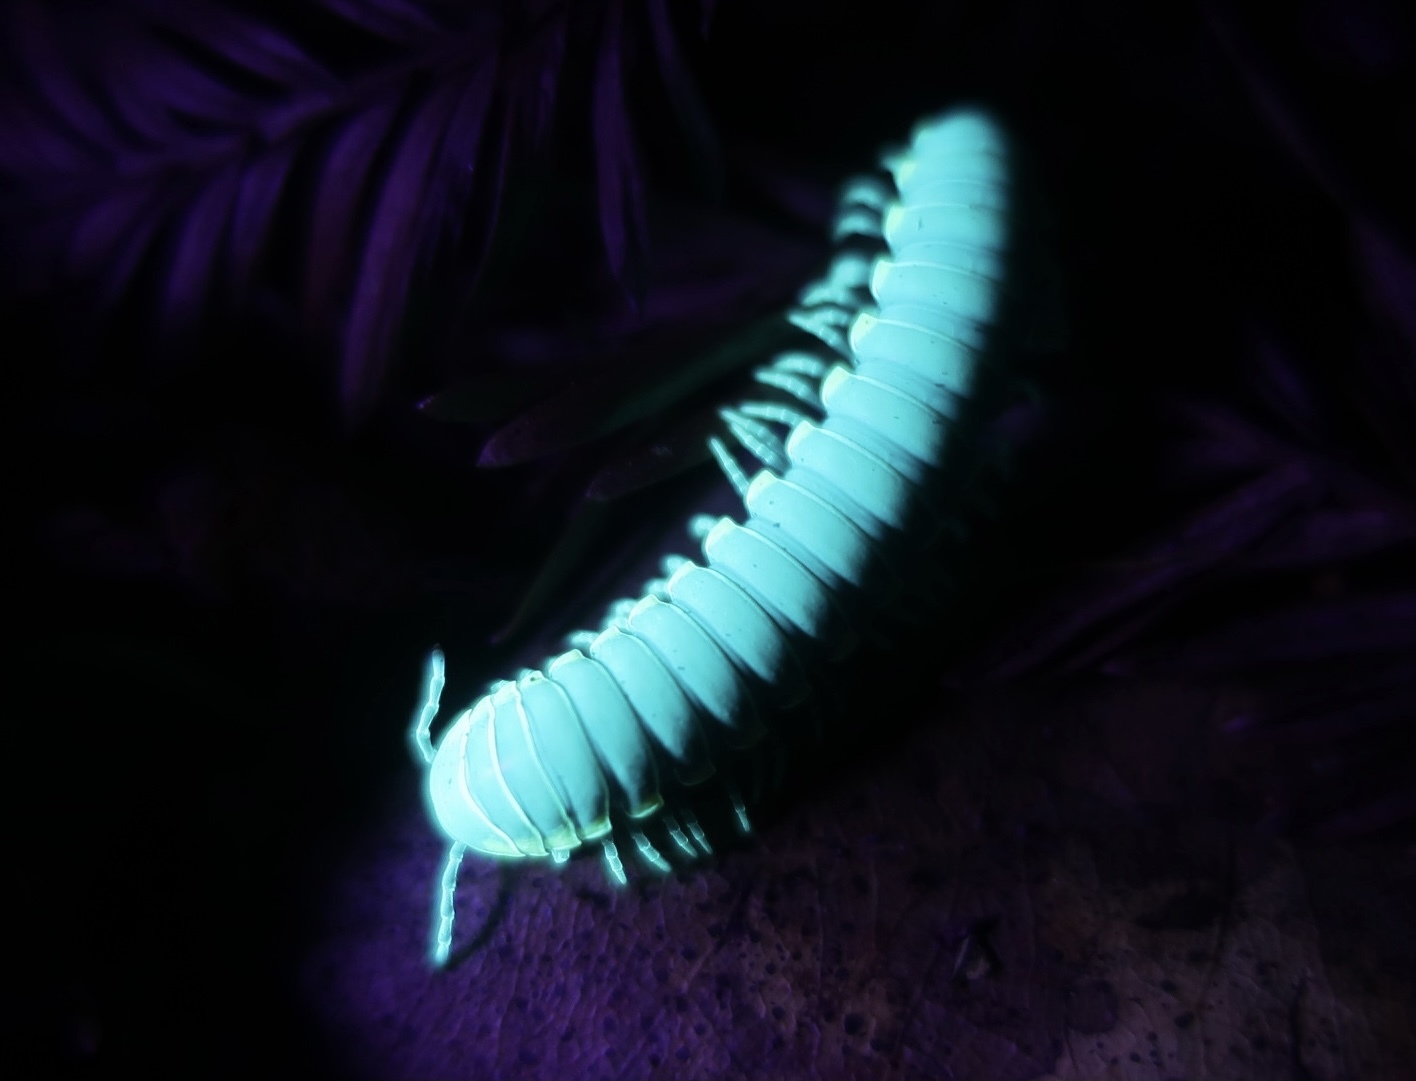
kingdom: Animalia
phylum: Arthropoda
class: Diplopoda
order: Polydesmida
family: Xystodesmidae
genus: Harpaphe
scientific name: Harpaphe haydeniana
